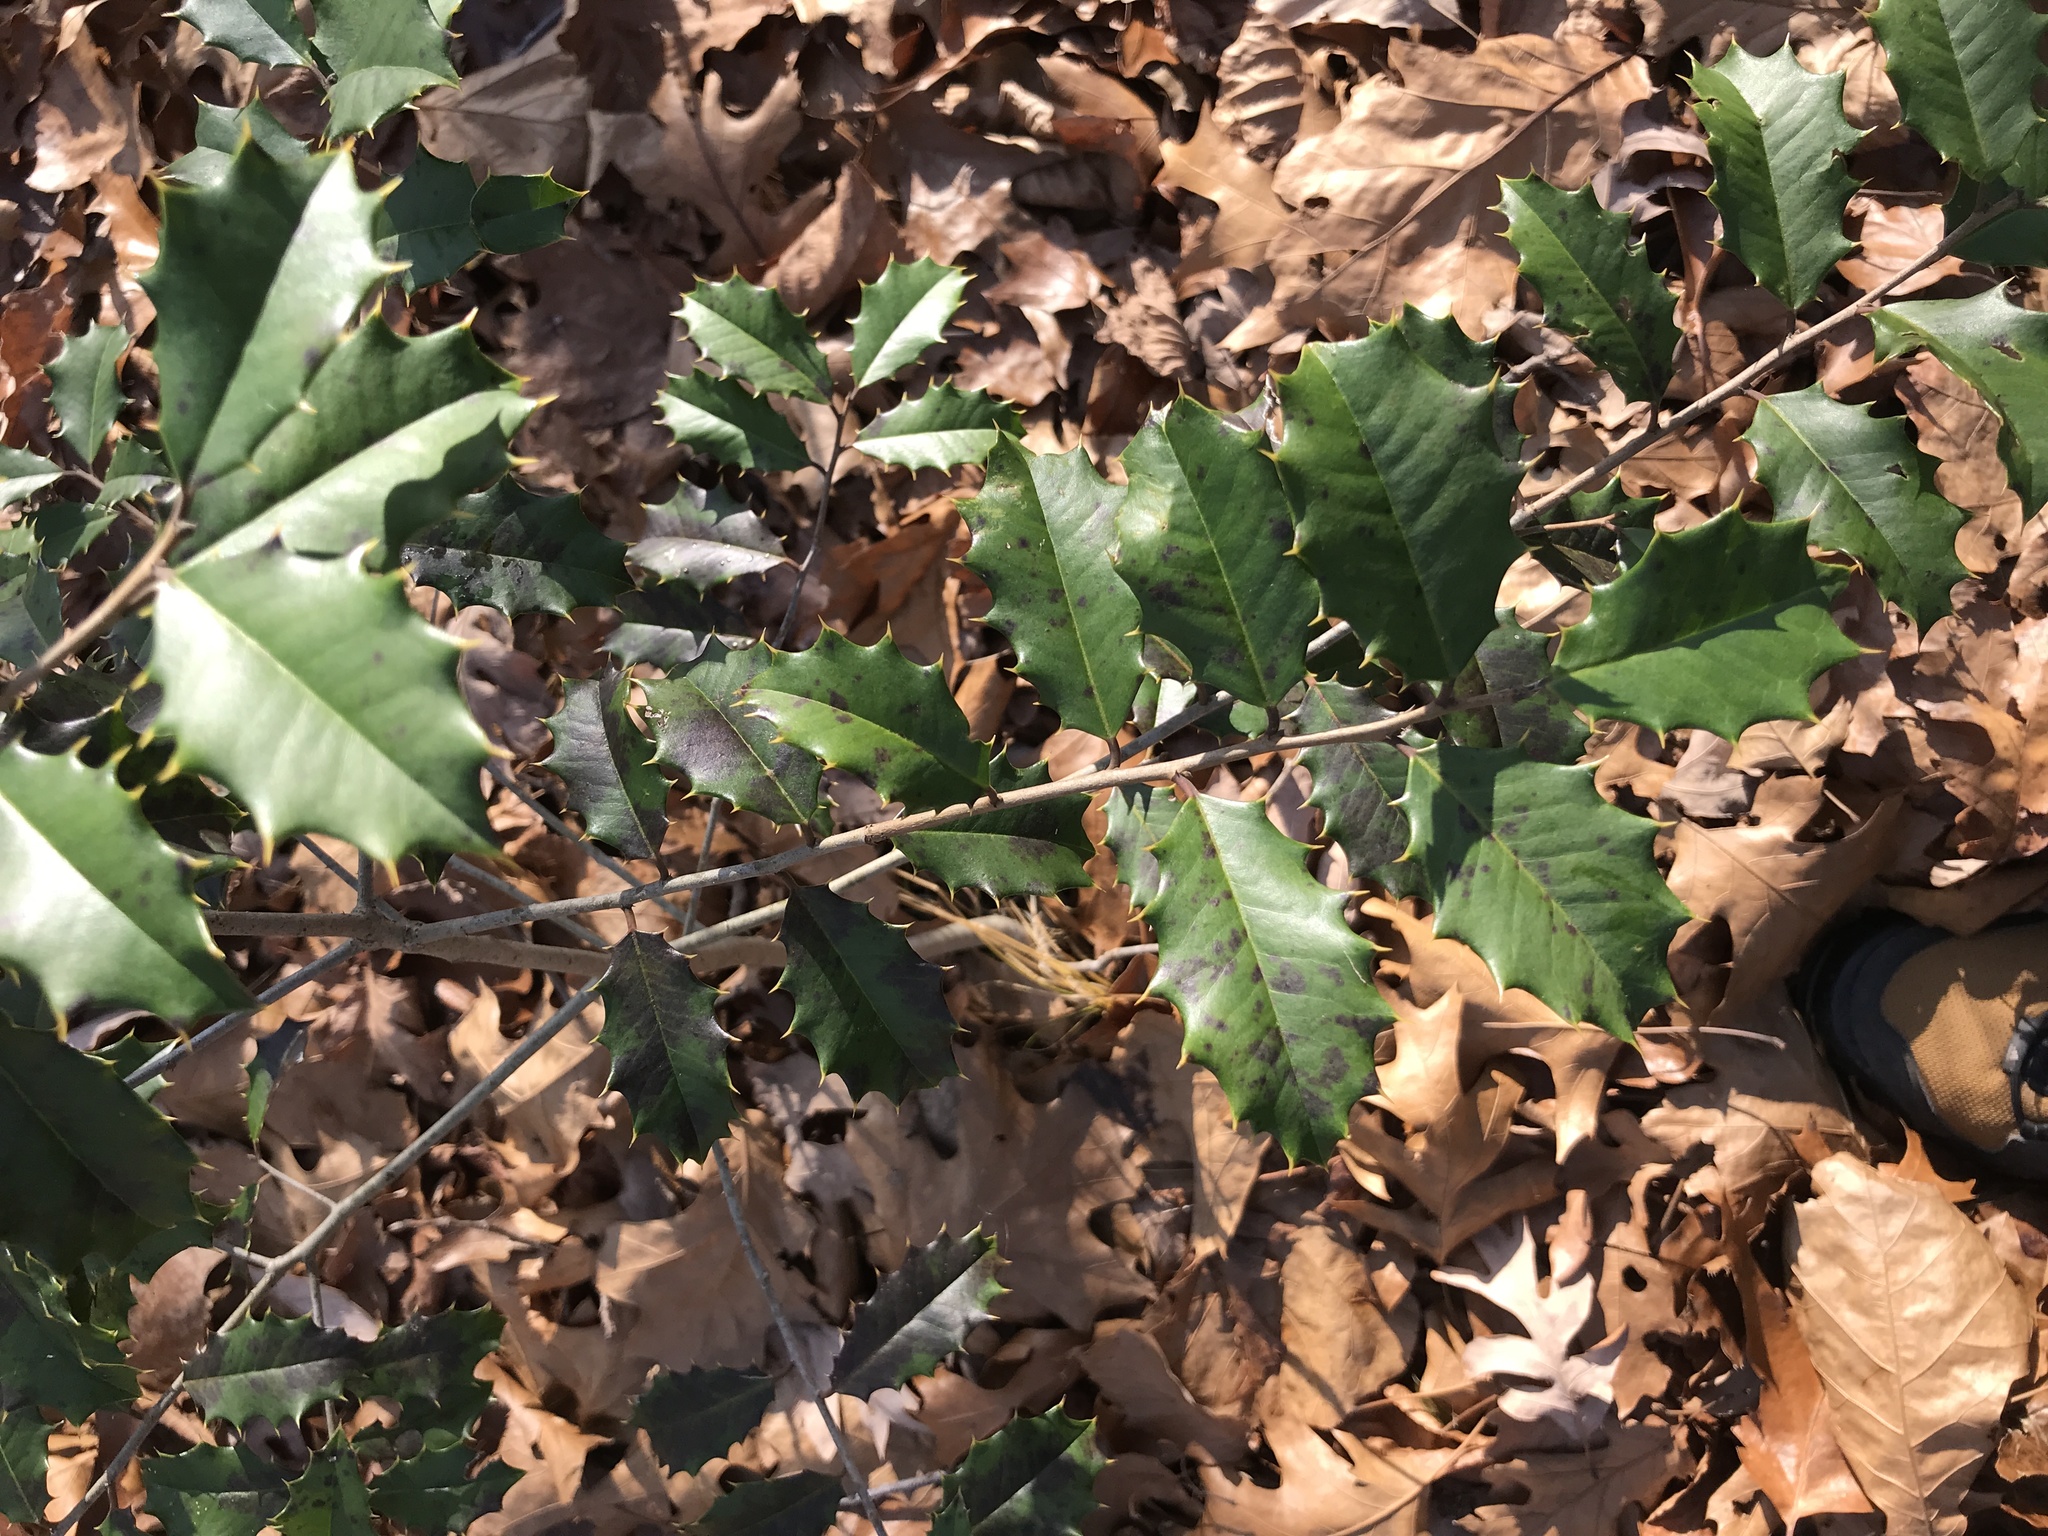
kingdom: Plantae
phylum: Tracheophyta
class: Magnoliopsida
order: Aquifoliales
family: Aquifoliaceae
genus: Ilex
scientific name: Ilex opaca
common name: American holly
